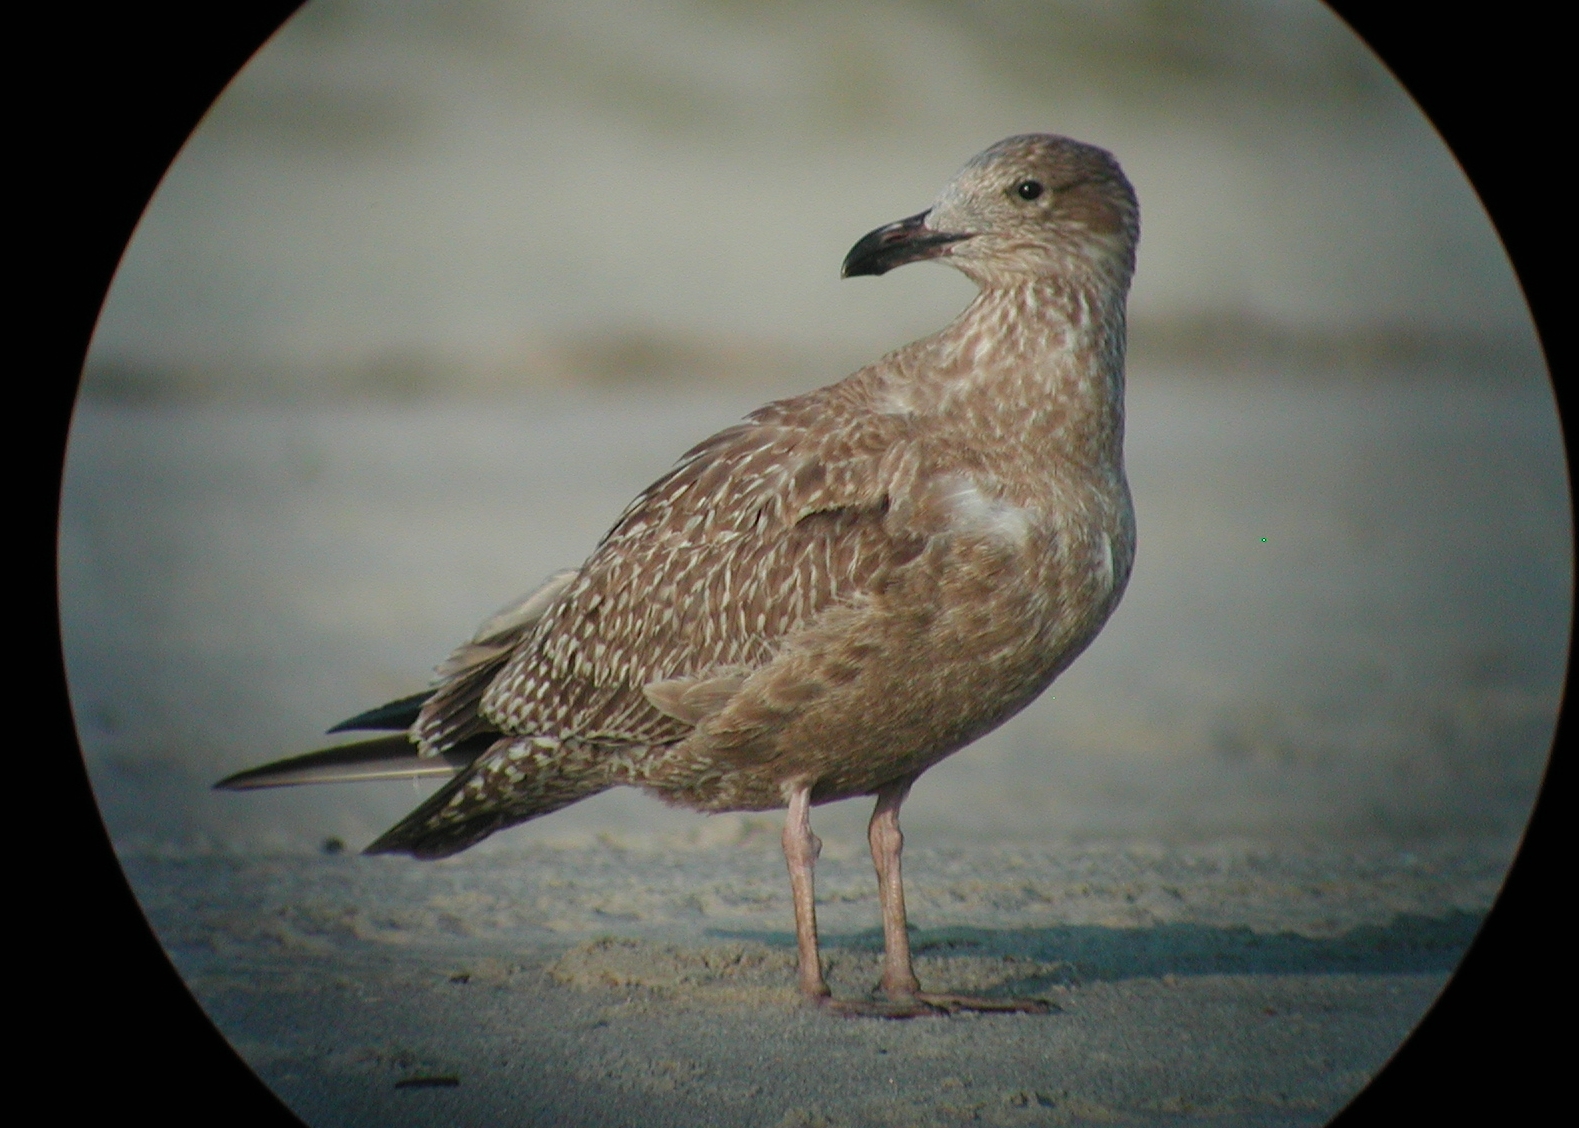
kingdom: Animalia
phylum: Chordata
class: Aves
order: Charadriiformes
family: Laridae
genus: Larus
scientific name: Larus argentatus
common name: Herring gull
